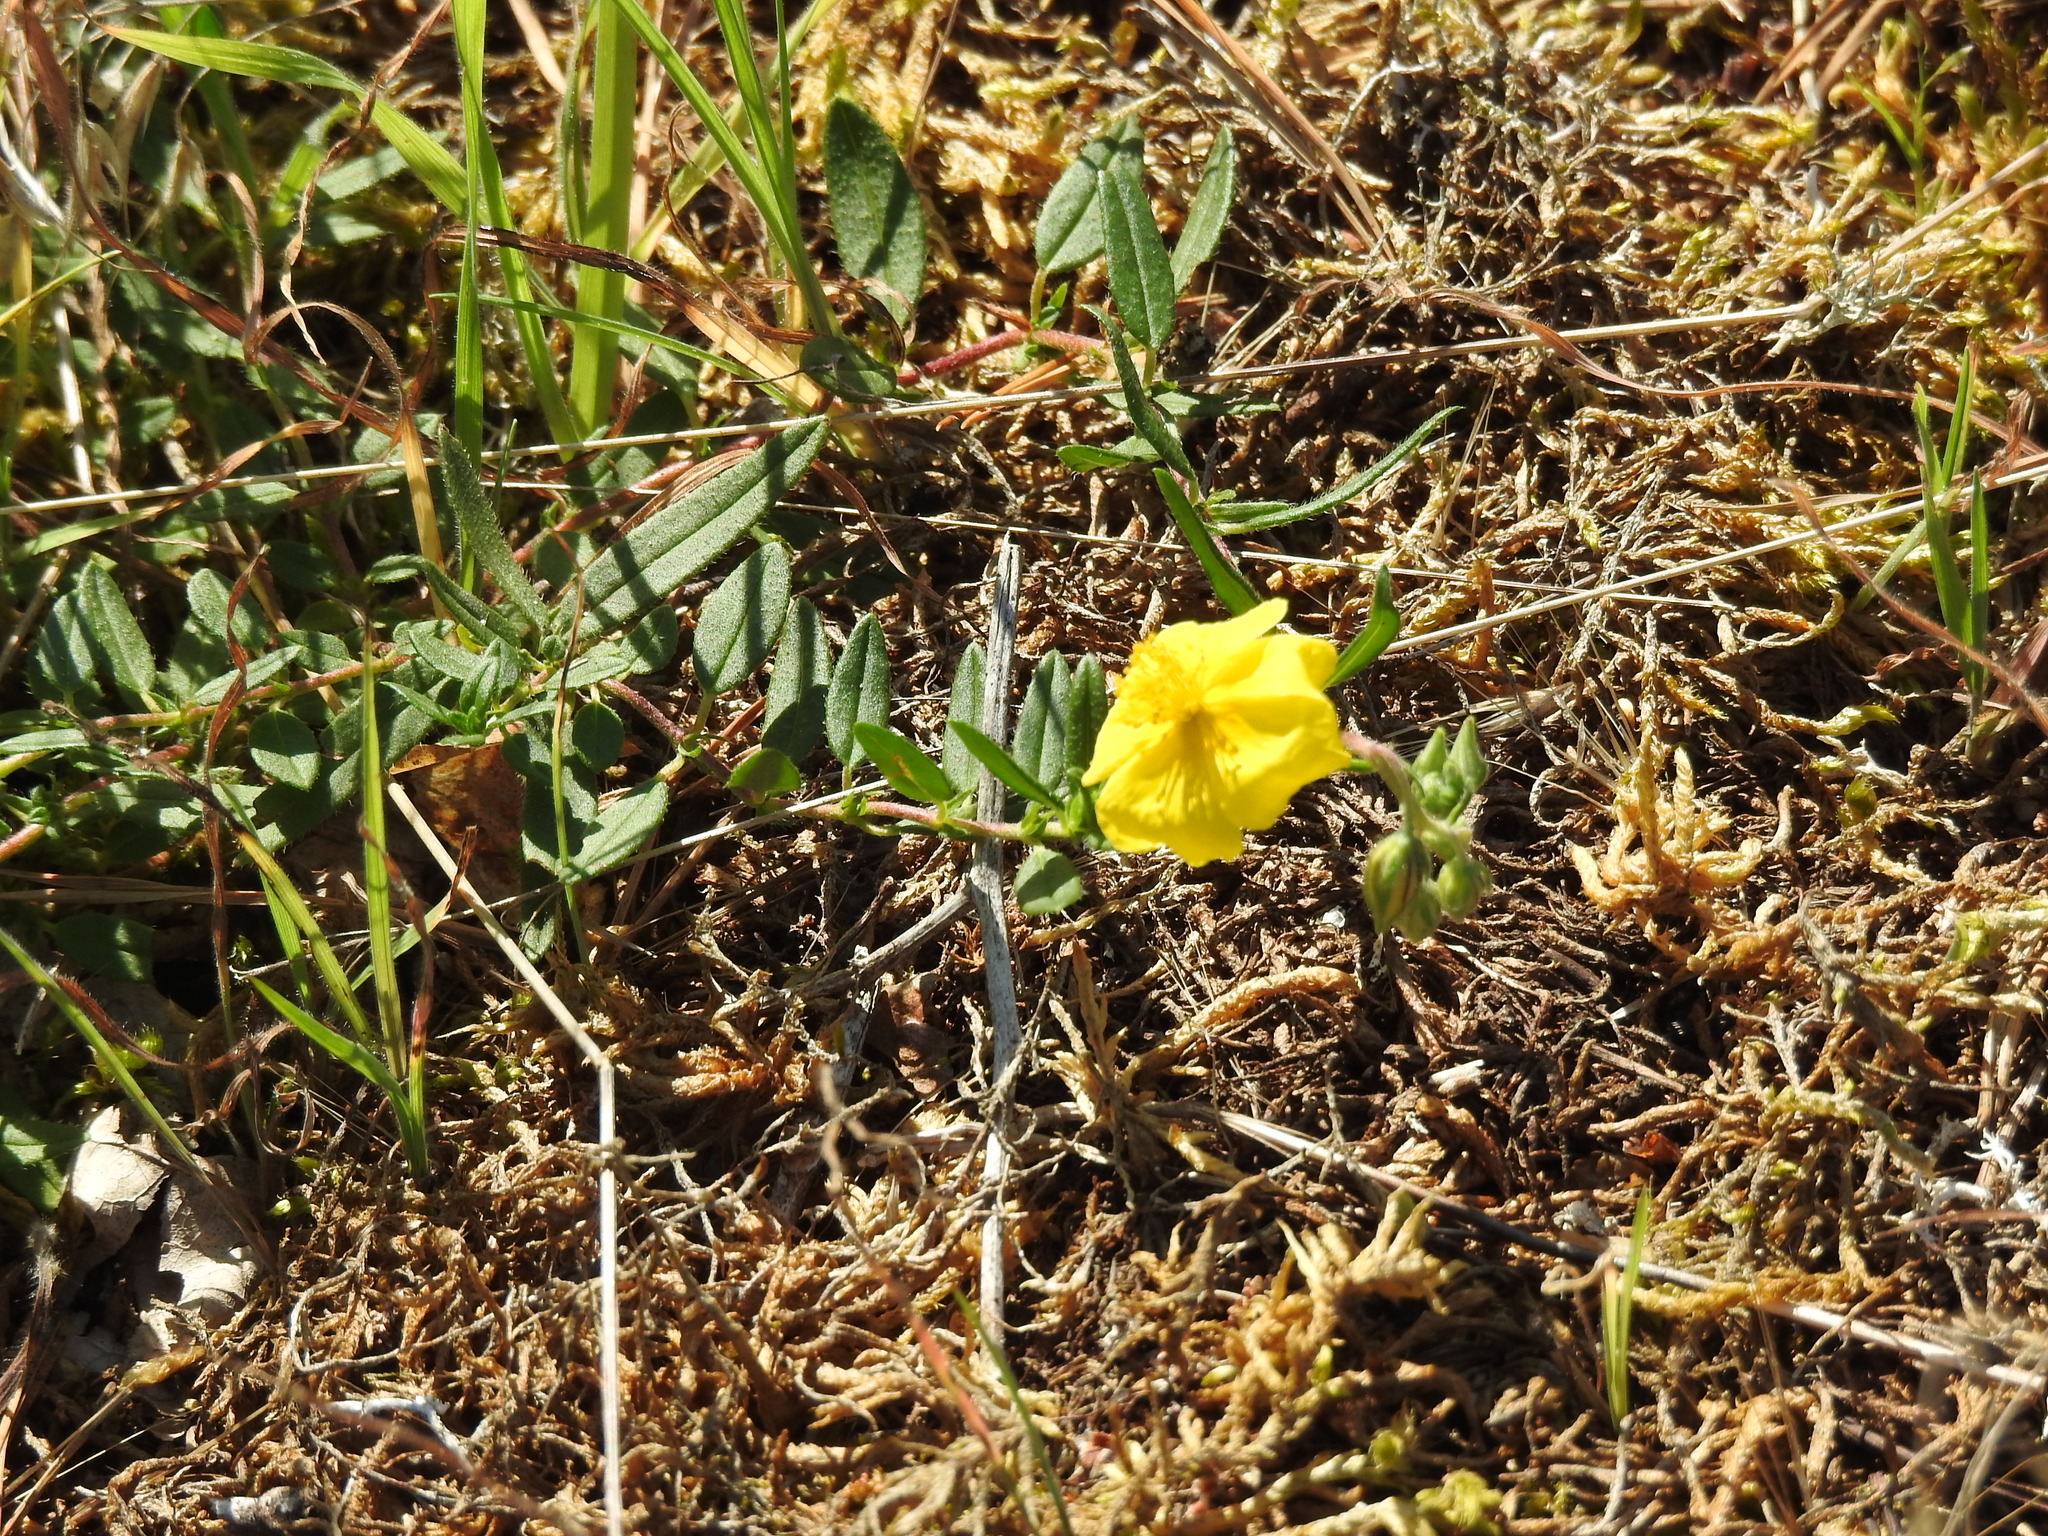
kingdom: Plantae
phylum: Tracheophyta
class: Magnoliopsida
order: Malvales
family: Cistaceae
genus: Helianthemum
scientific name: Helianthemum nummularium
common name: Common rock-rose
